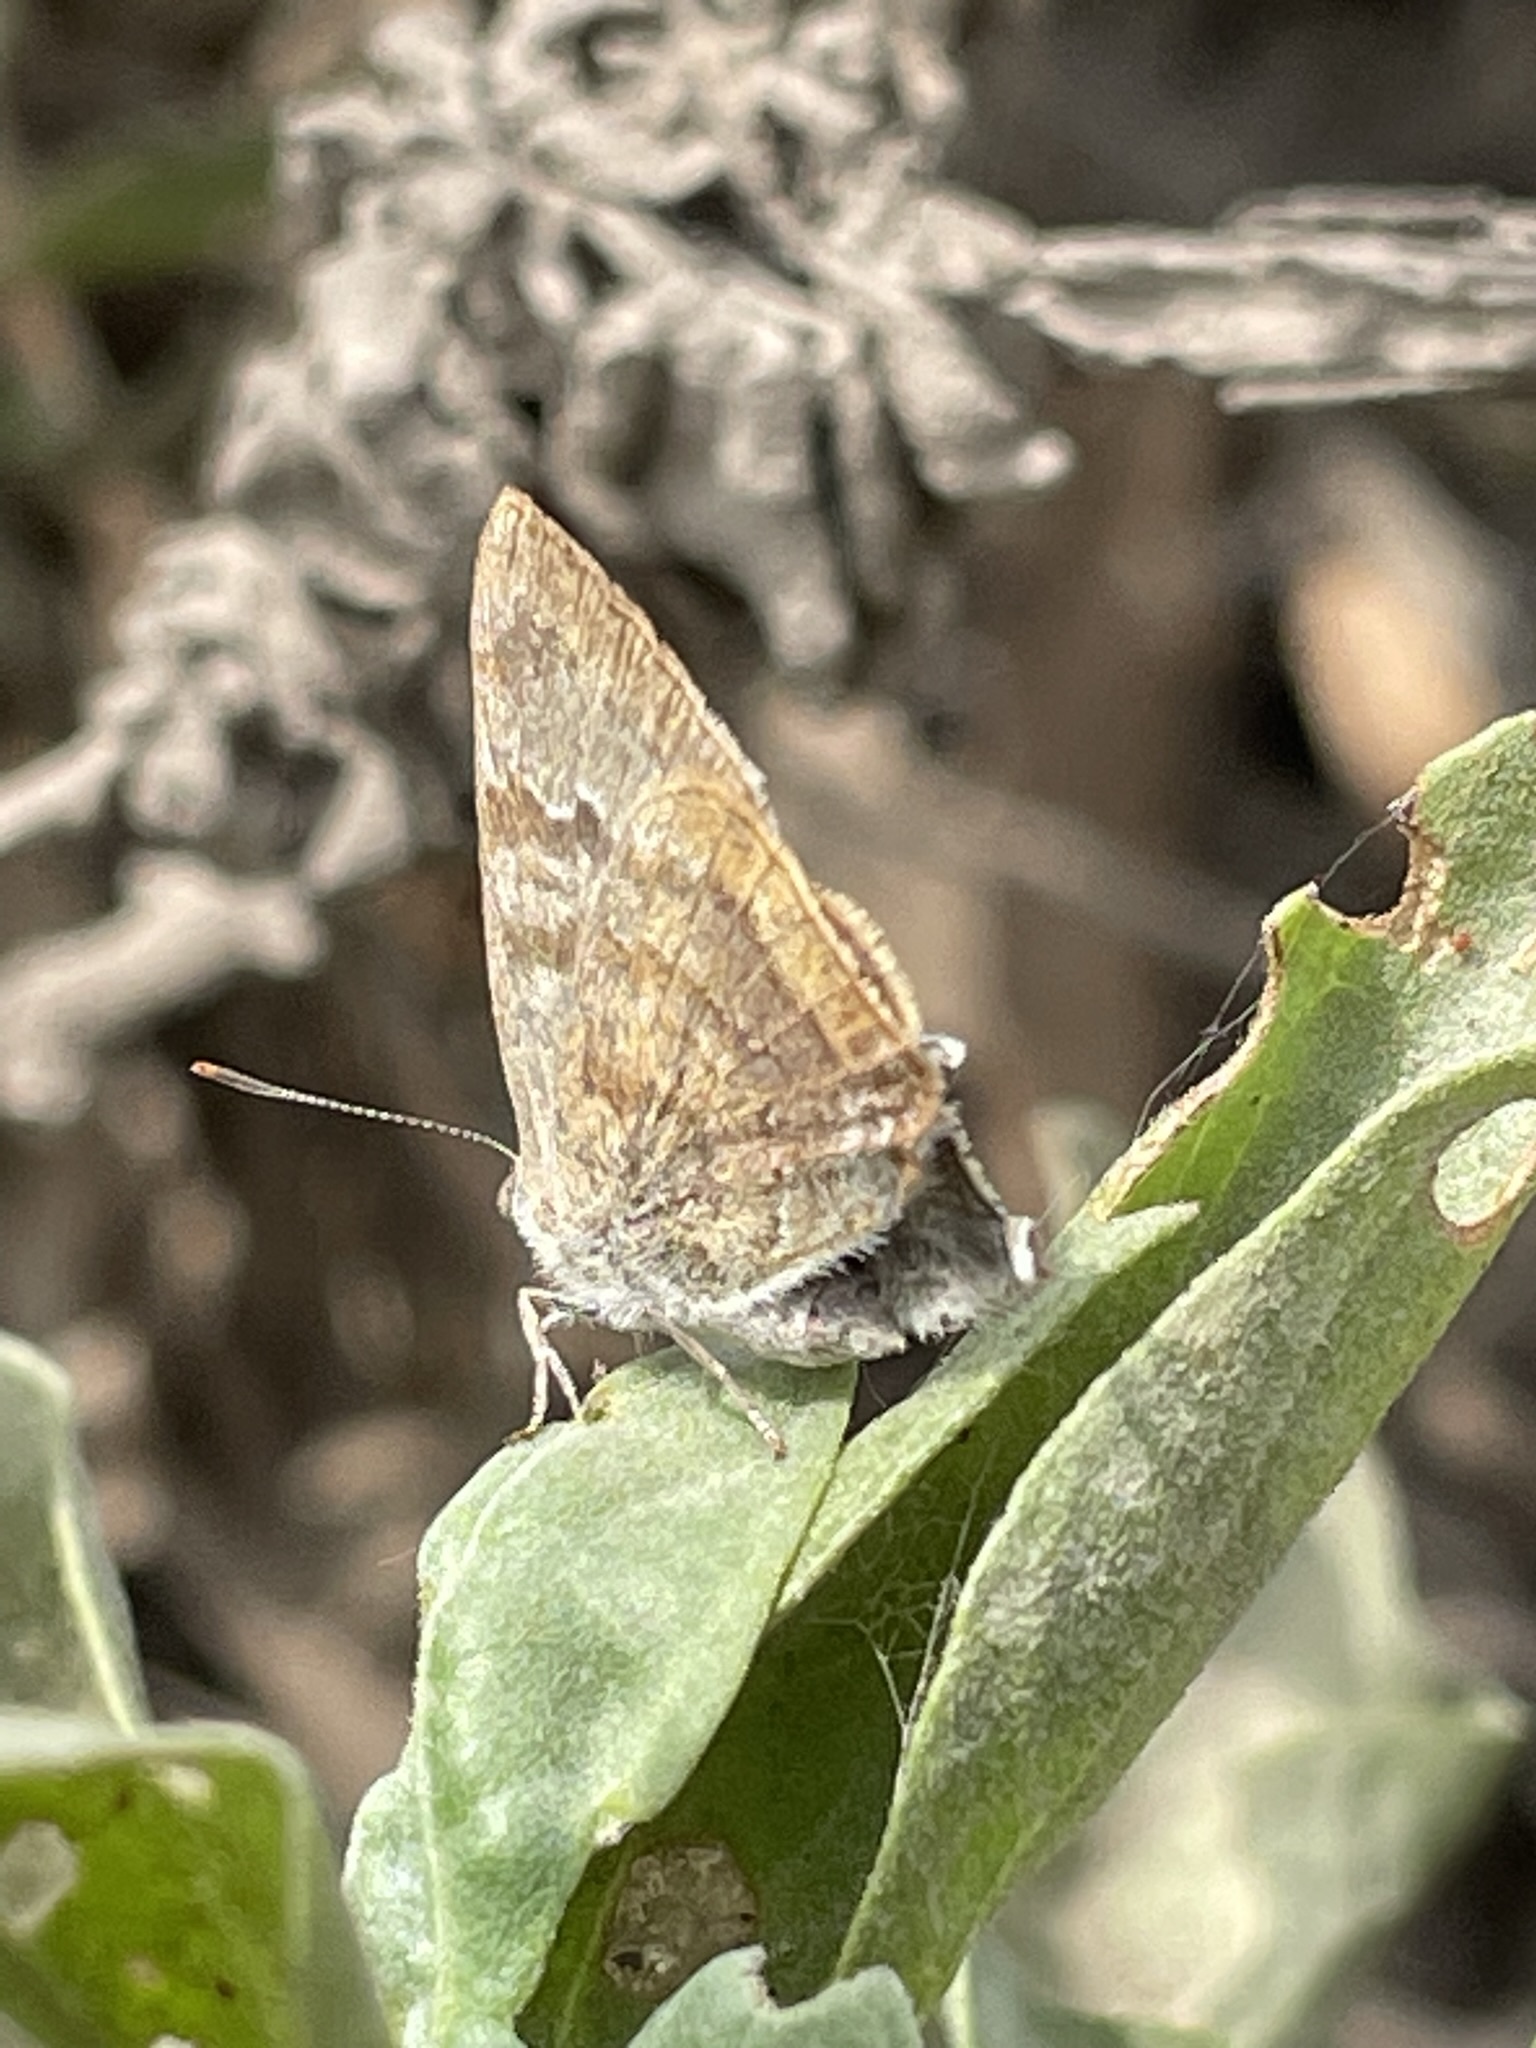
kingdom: Animalia
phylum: Arthropoda
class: Insecta
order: Lepidoptera
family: Lycaenidae
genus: Rekoa
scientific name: Rekoa palegon
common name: Gold-bordered hairstreak
